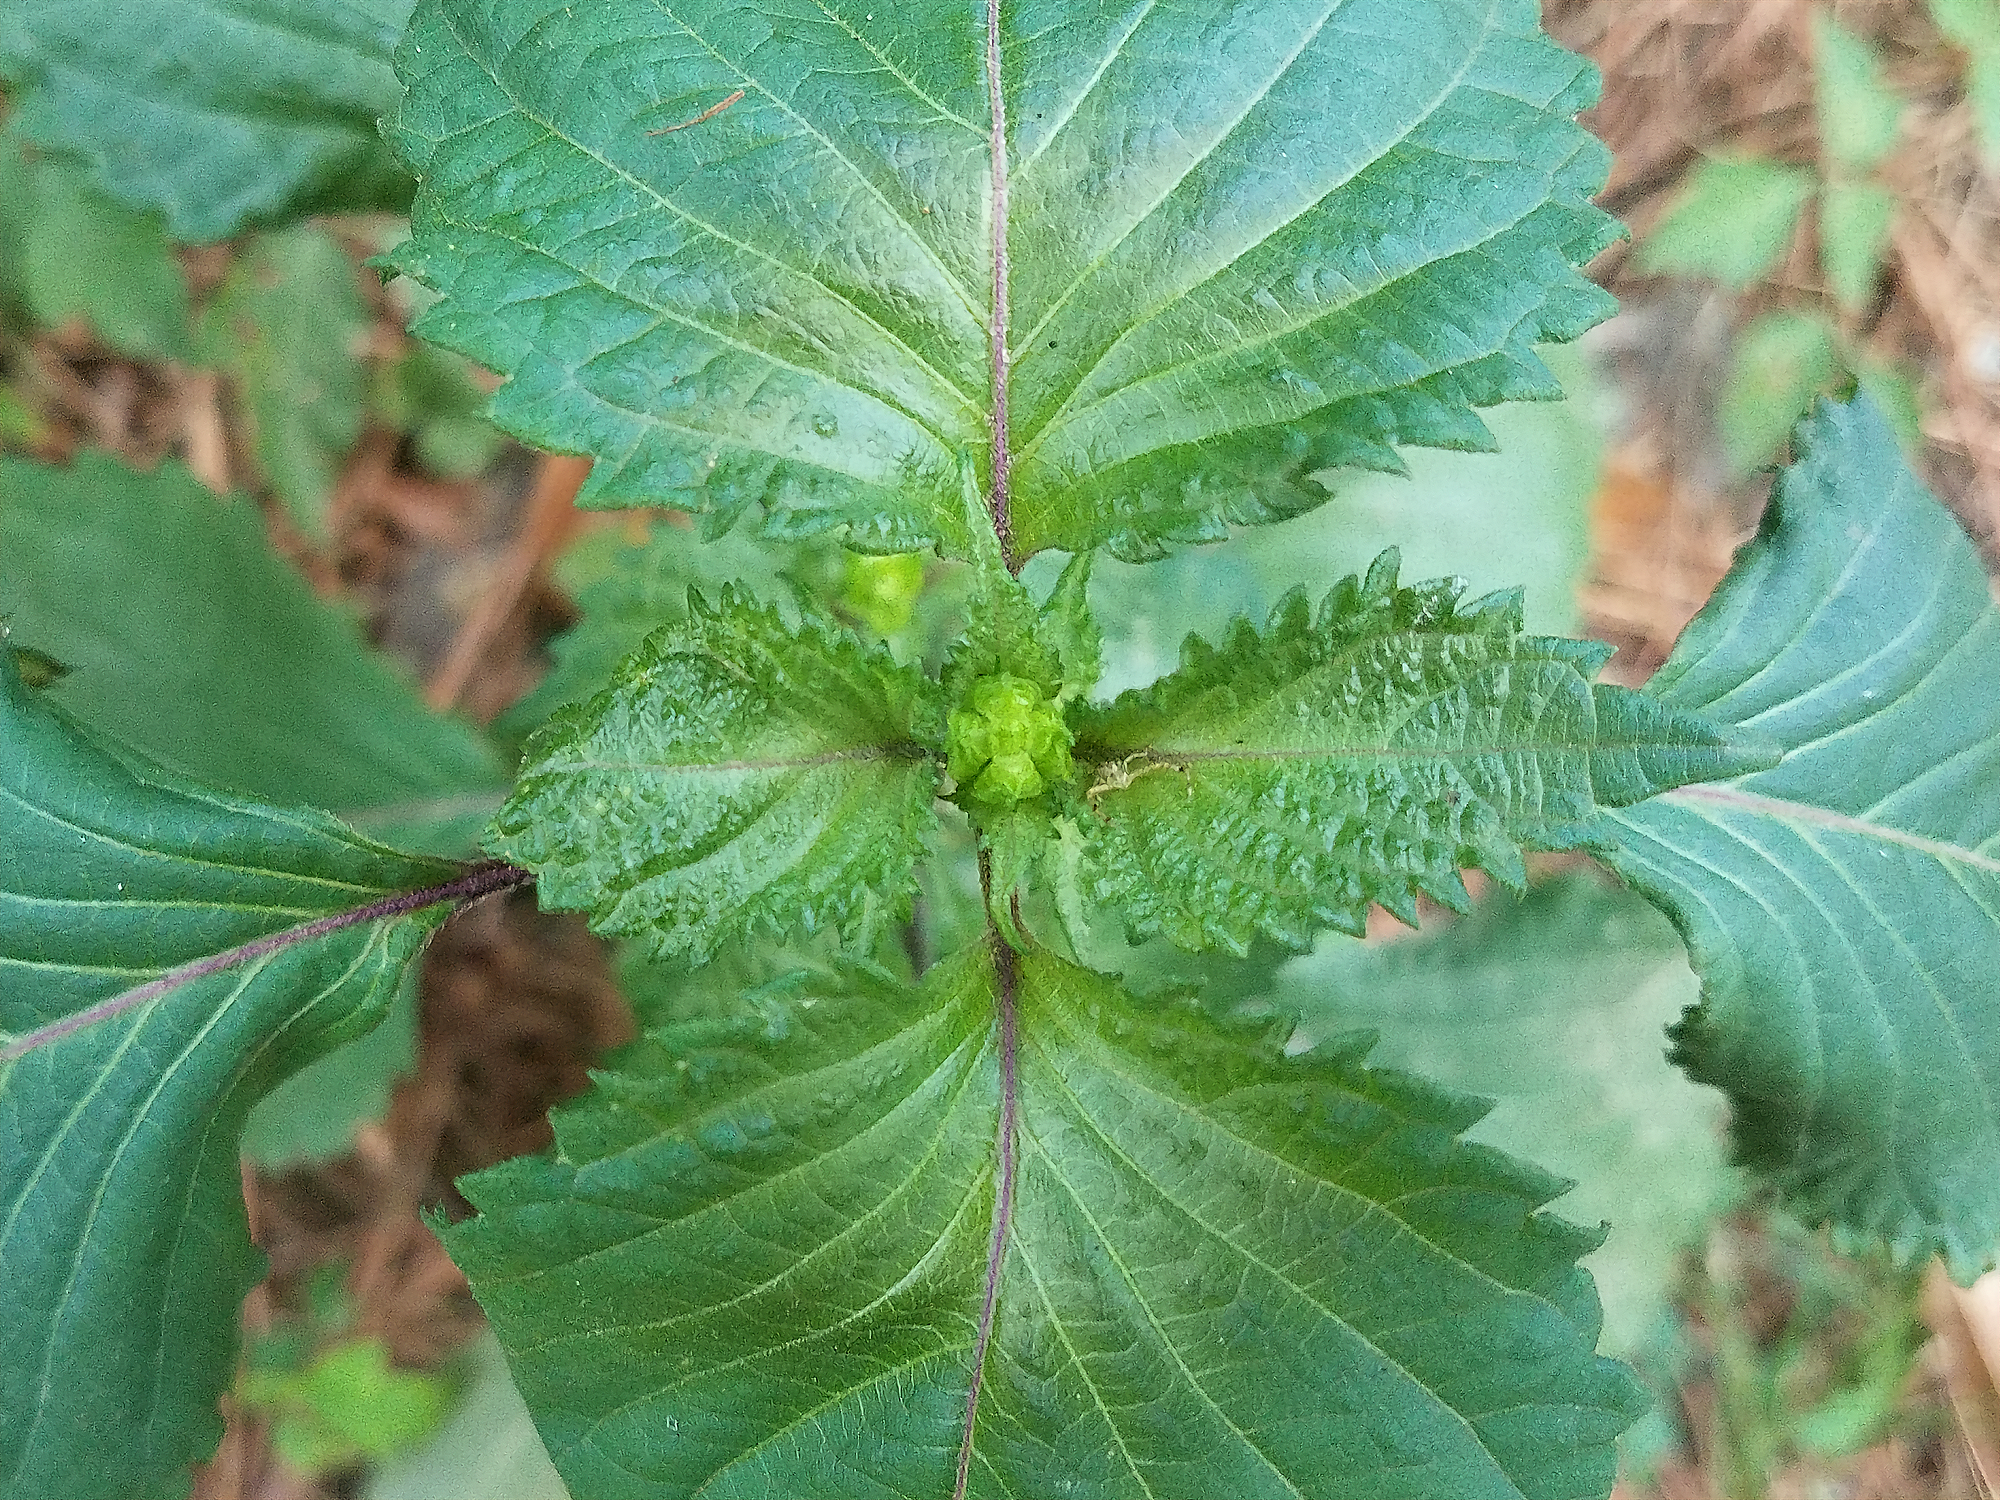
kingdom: Plantae
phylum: Tracheophyta
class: Magnoliopsida
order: Lamiales
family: Lamiaceae
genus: Perilla
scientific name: Perilla frutescens
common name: Perilla
